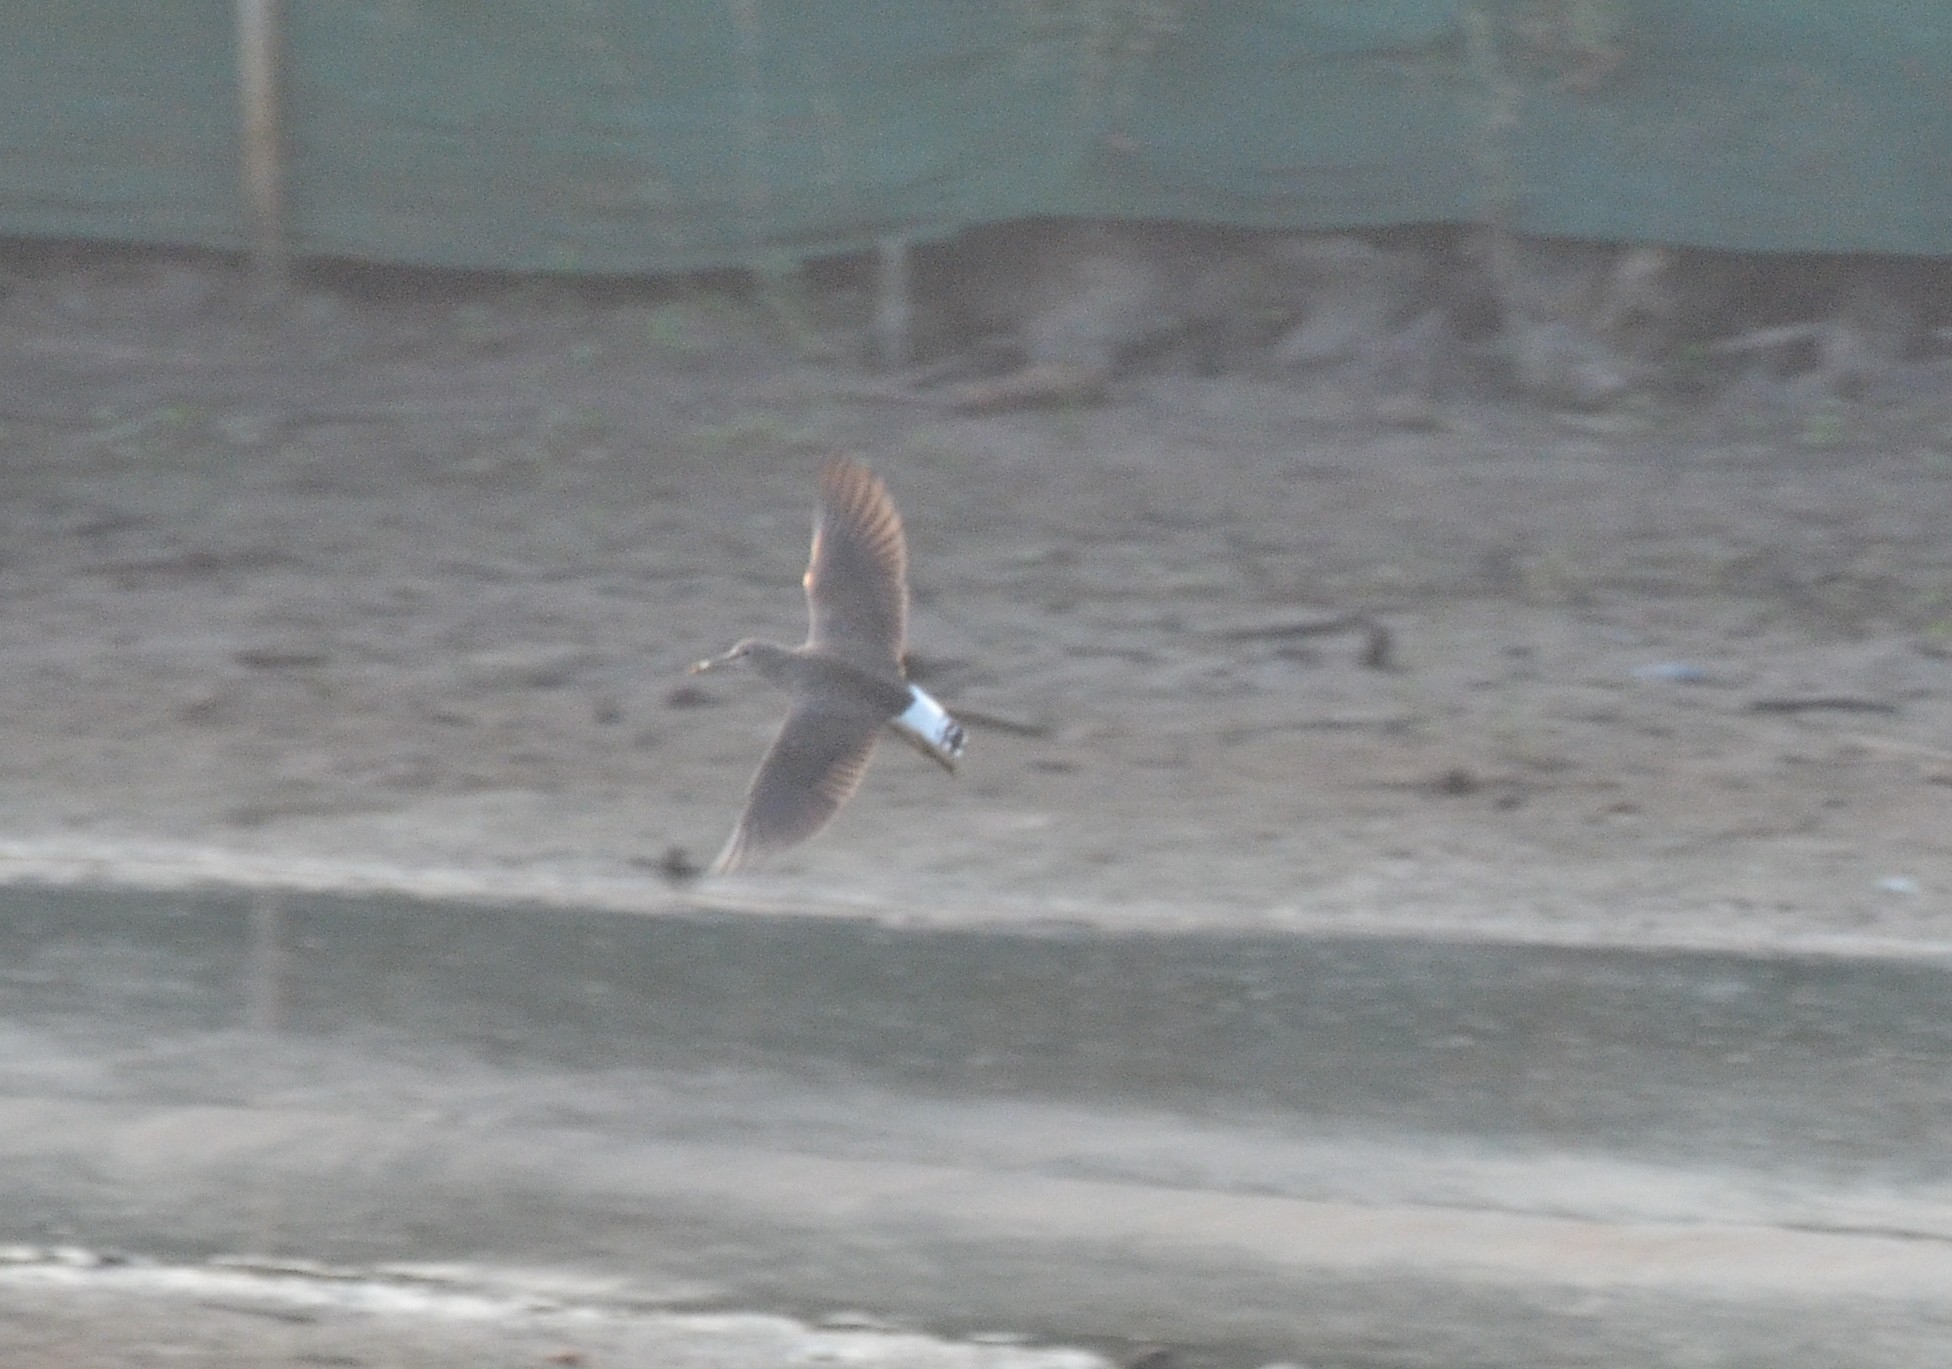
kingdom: Animalia
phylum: Chordata
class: Aves
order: Charadriiformes
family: Scolopacidae
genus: Tringa
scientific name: Tringa ochropus
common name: Green sandpiper
